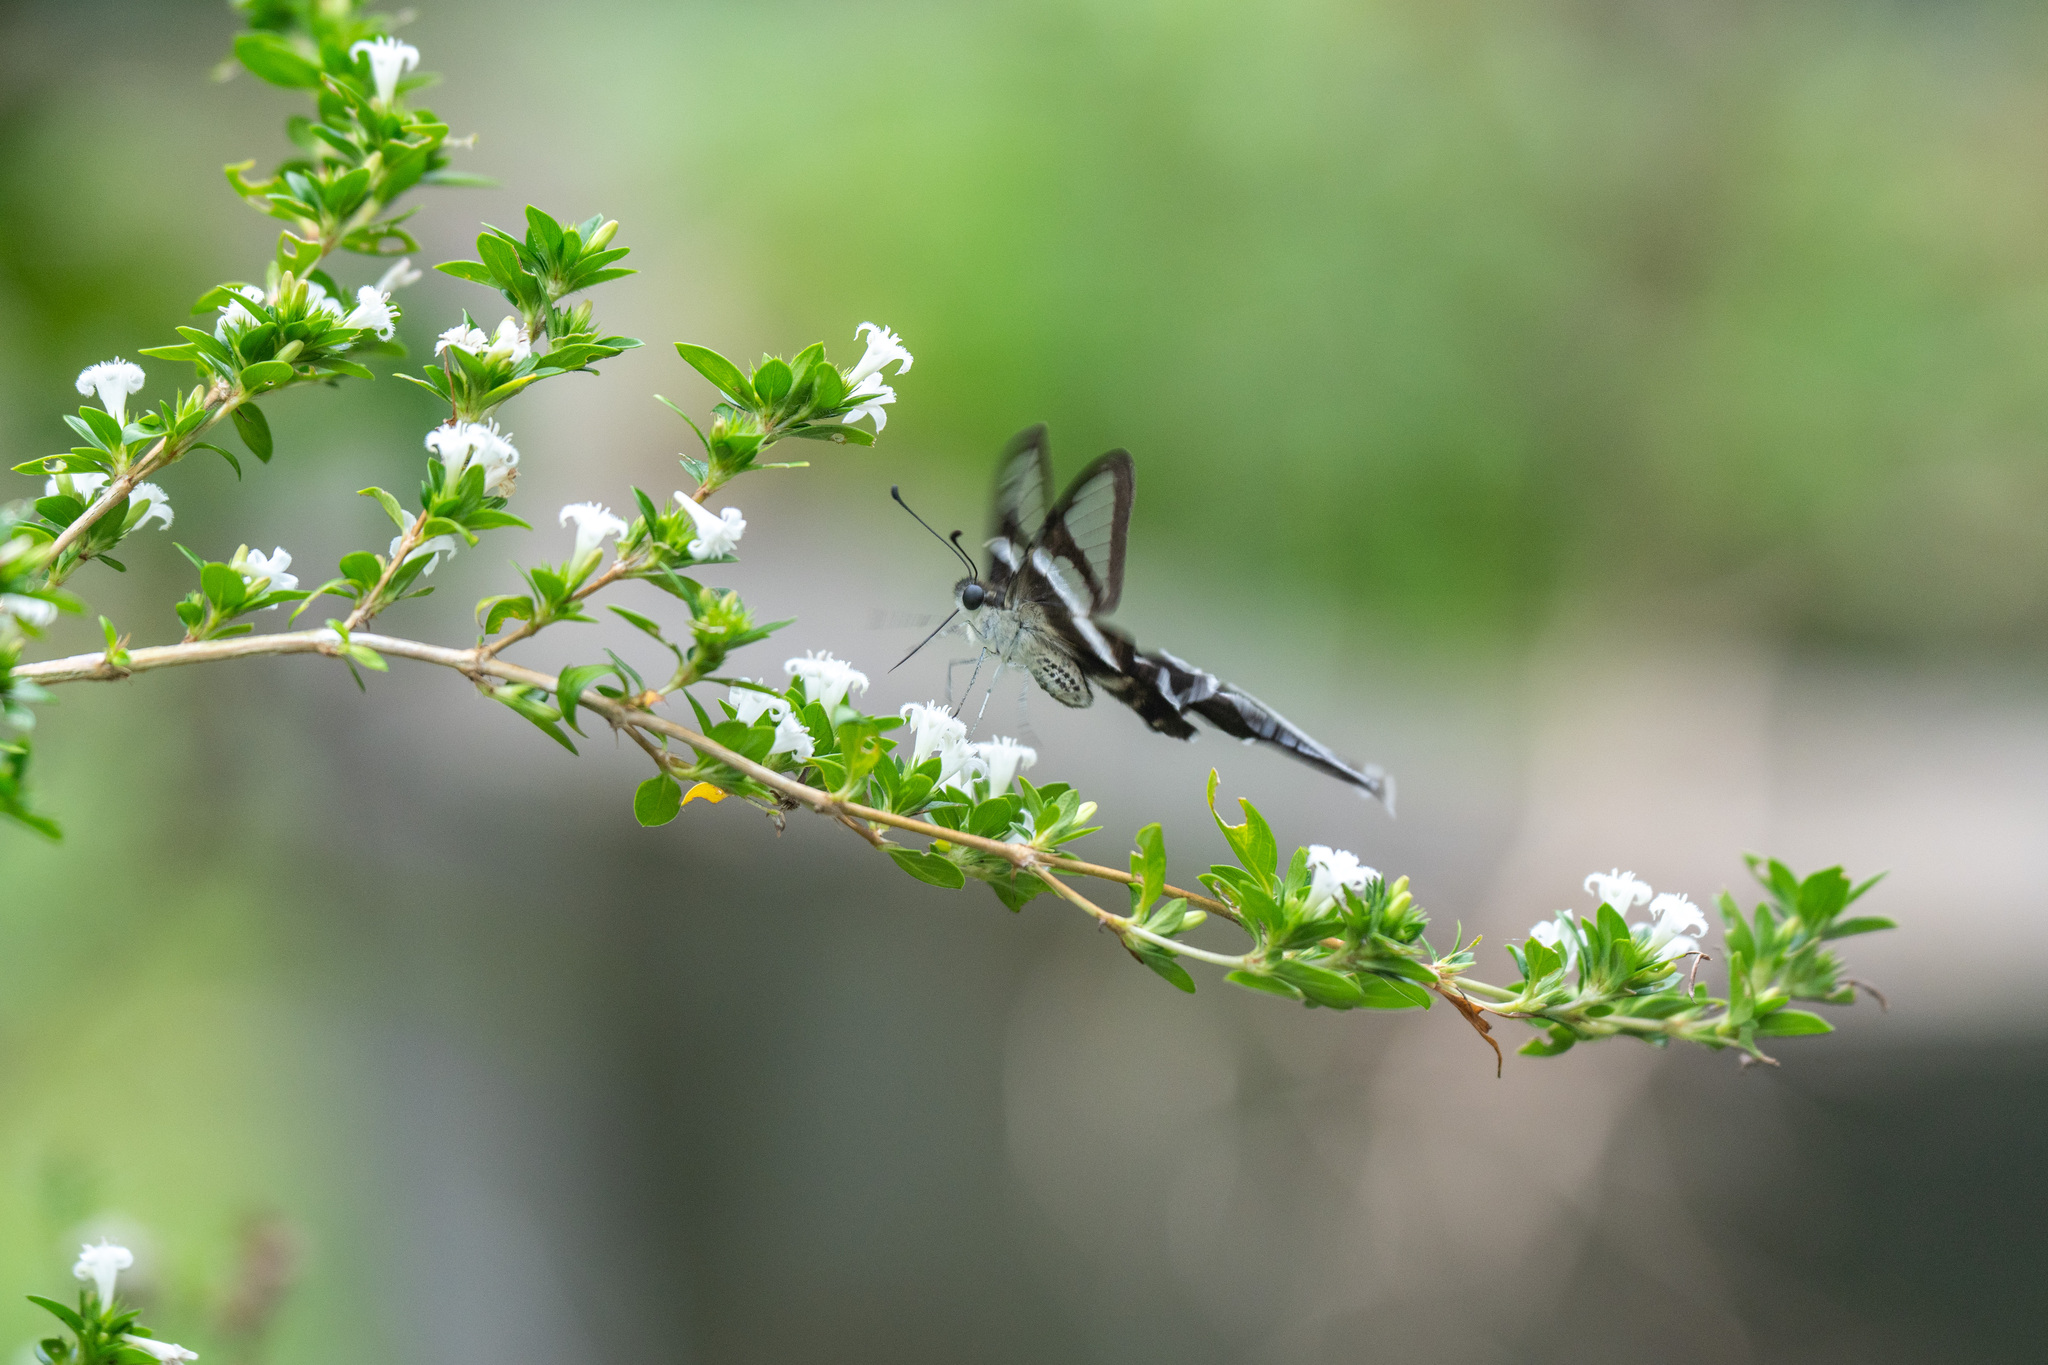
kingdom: Animalia
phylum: Arthropoda
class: Insecta
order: Lepidoptera
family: Papilionidae
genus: Lamproptera
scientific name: Lamproptera curius
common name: White dragontail
